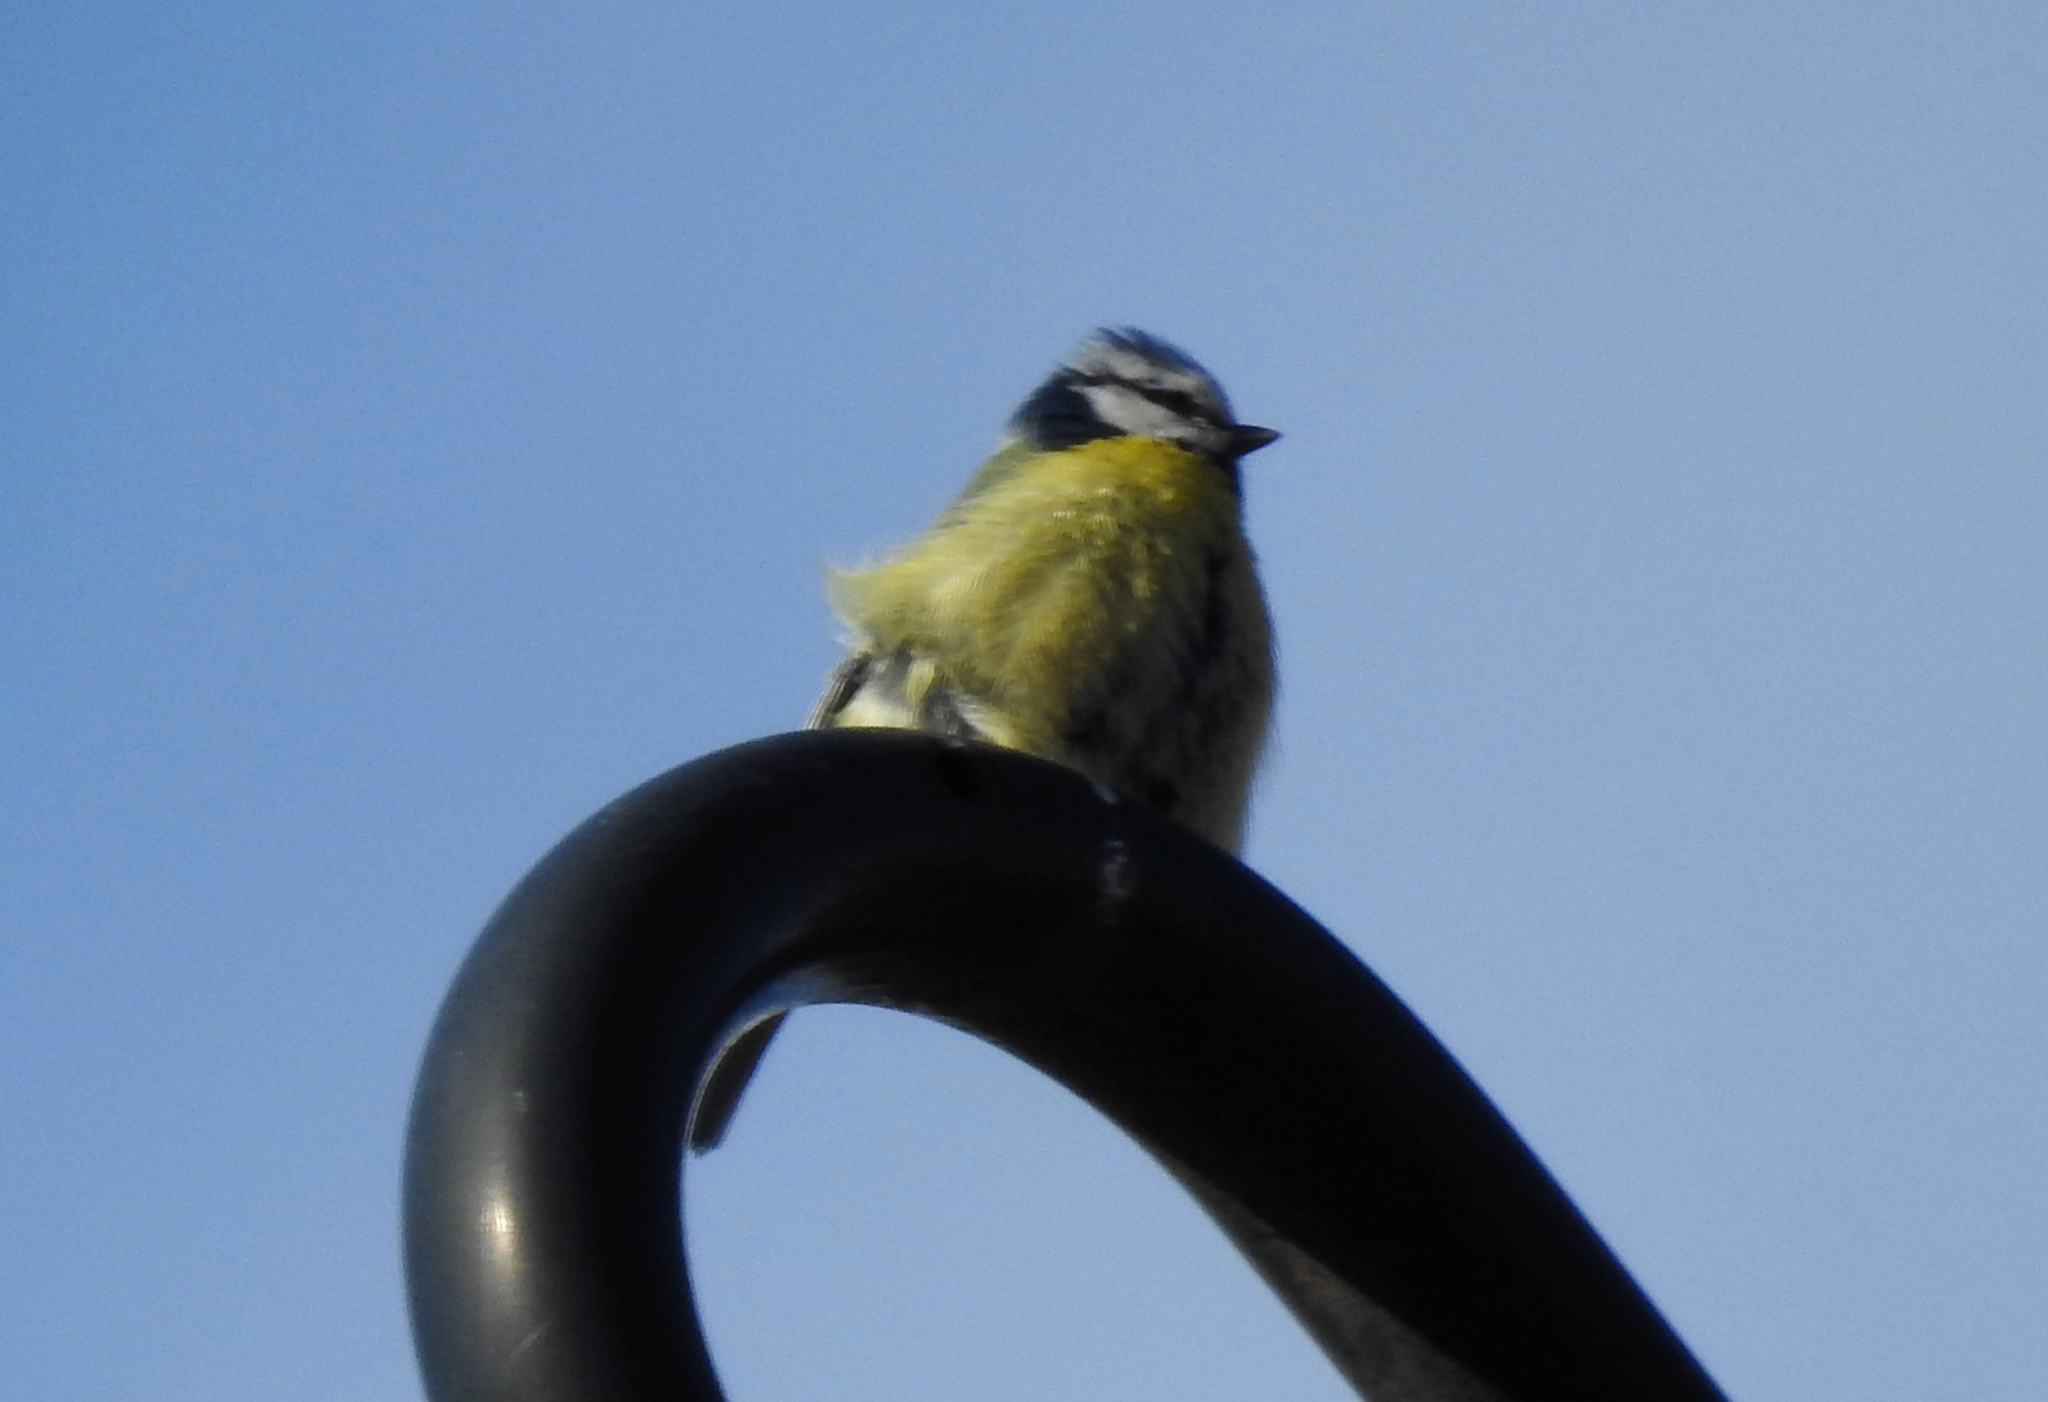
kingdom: Animalia
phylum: Chordata
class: Aves
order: Passeriformes
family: Paridae
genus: Cyanistes
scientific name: Cyanistes caeruleus
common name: Eurasian blue tit
